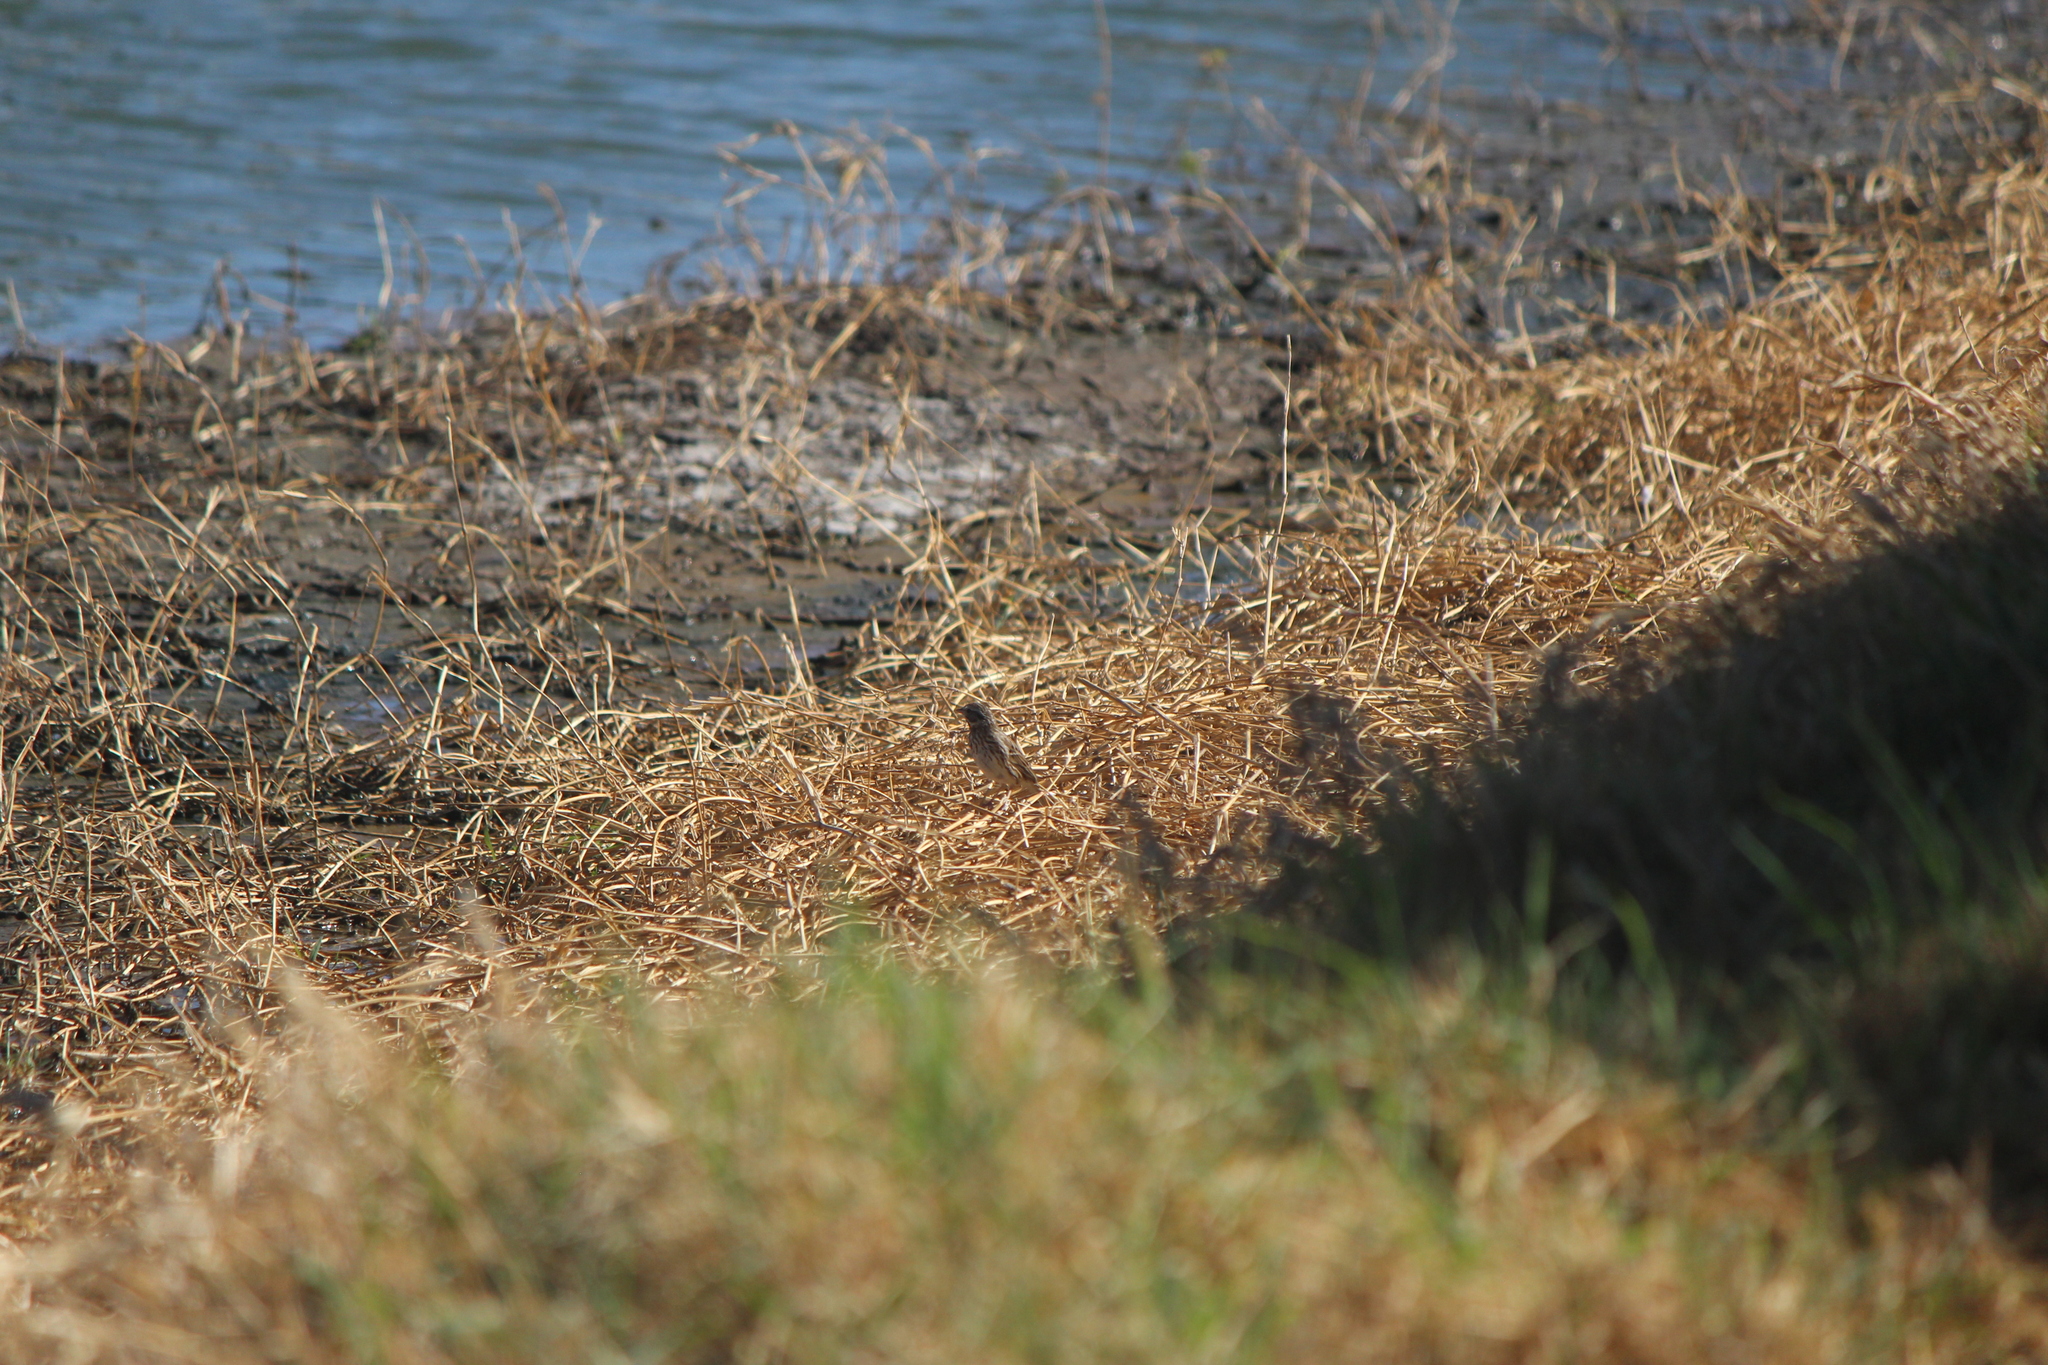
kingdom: Animalia
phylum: Chordata
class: Aves
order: Passeriformes
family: Passerellidae
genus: Passerculus
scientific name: Passerculus sandwichensis
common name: Savannah sparrow
